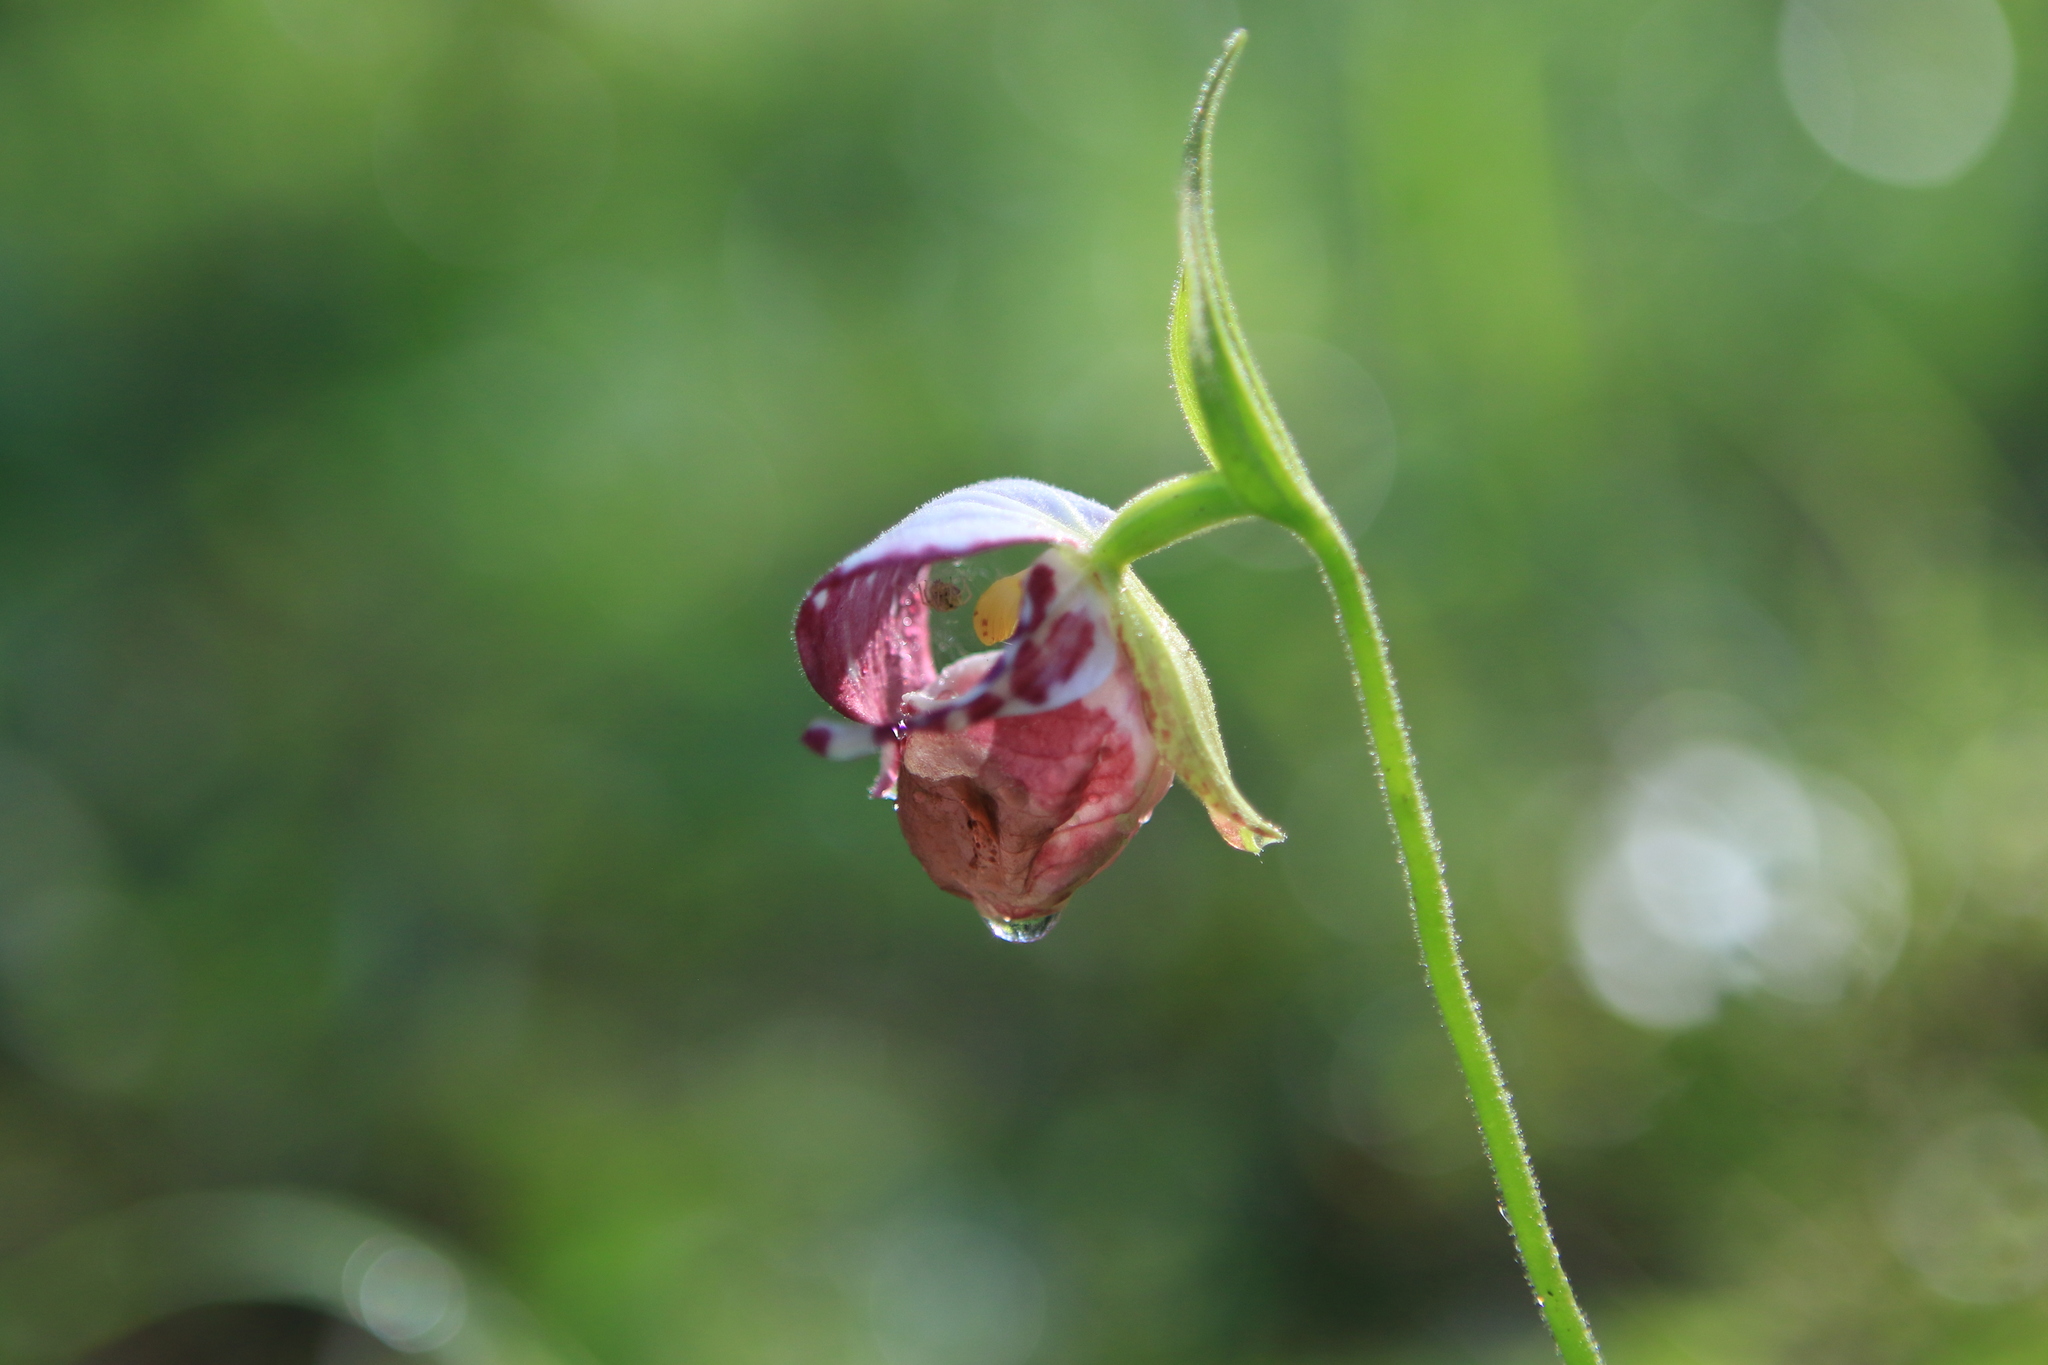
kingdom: Plantae
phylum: Tracheophyta
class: Liliopsida
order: Asparagales
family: Orchidaceae
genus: Cypripedium
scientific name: Cypripedium guttatum
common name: Pink lady slipper
